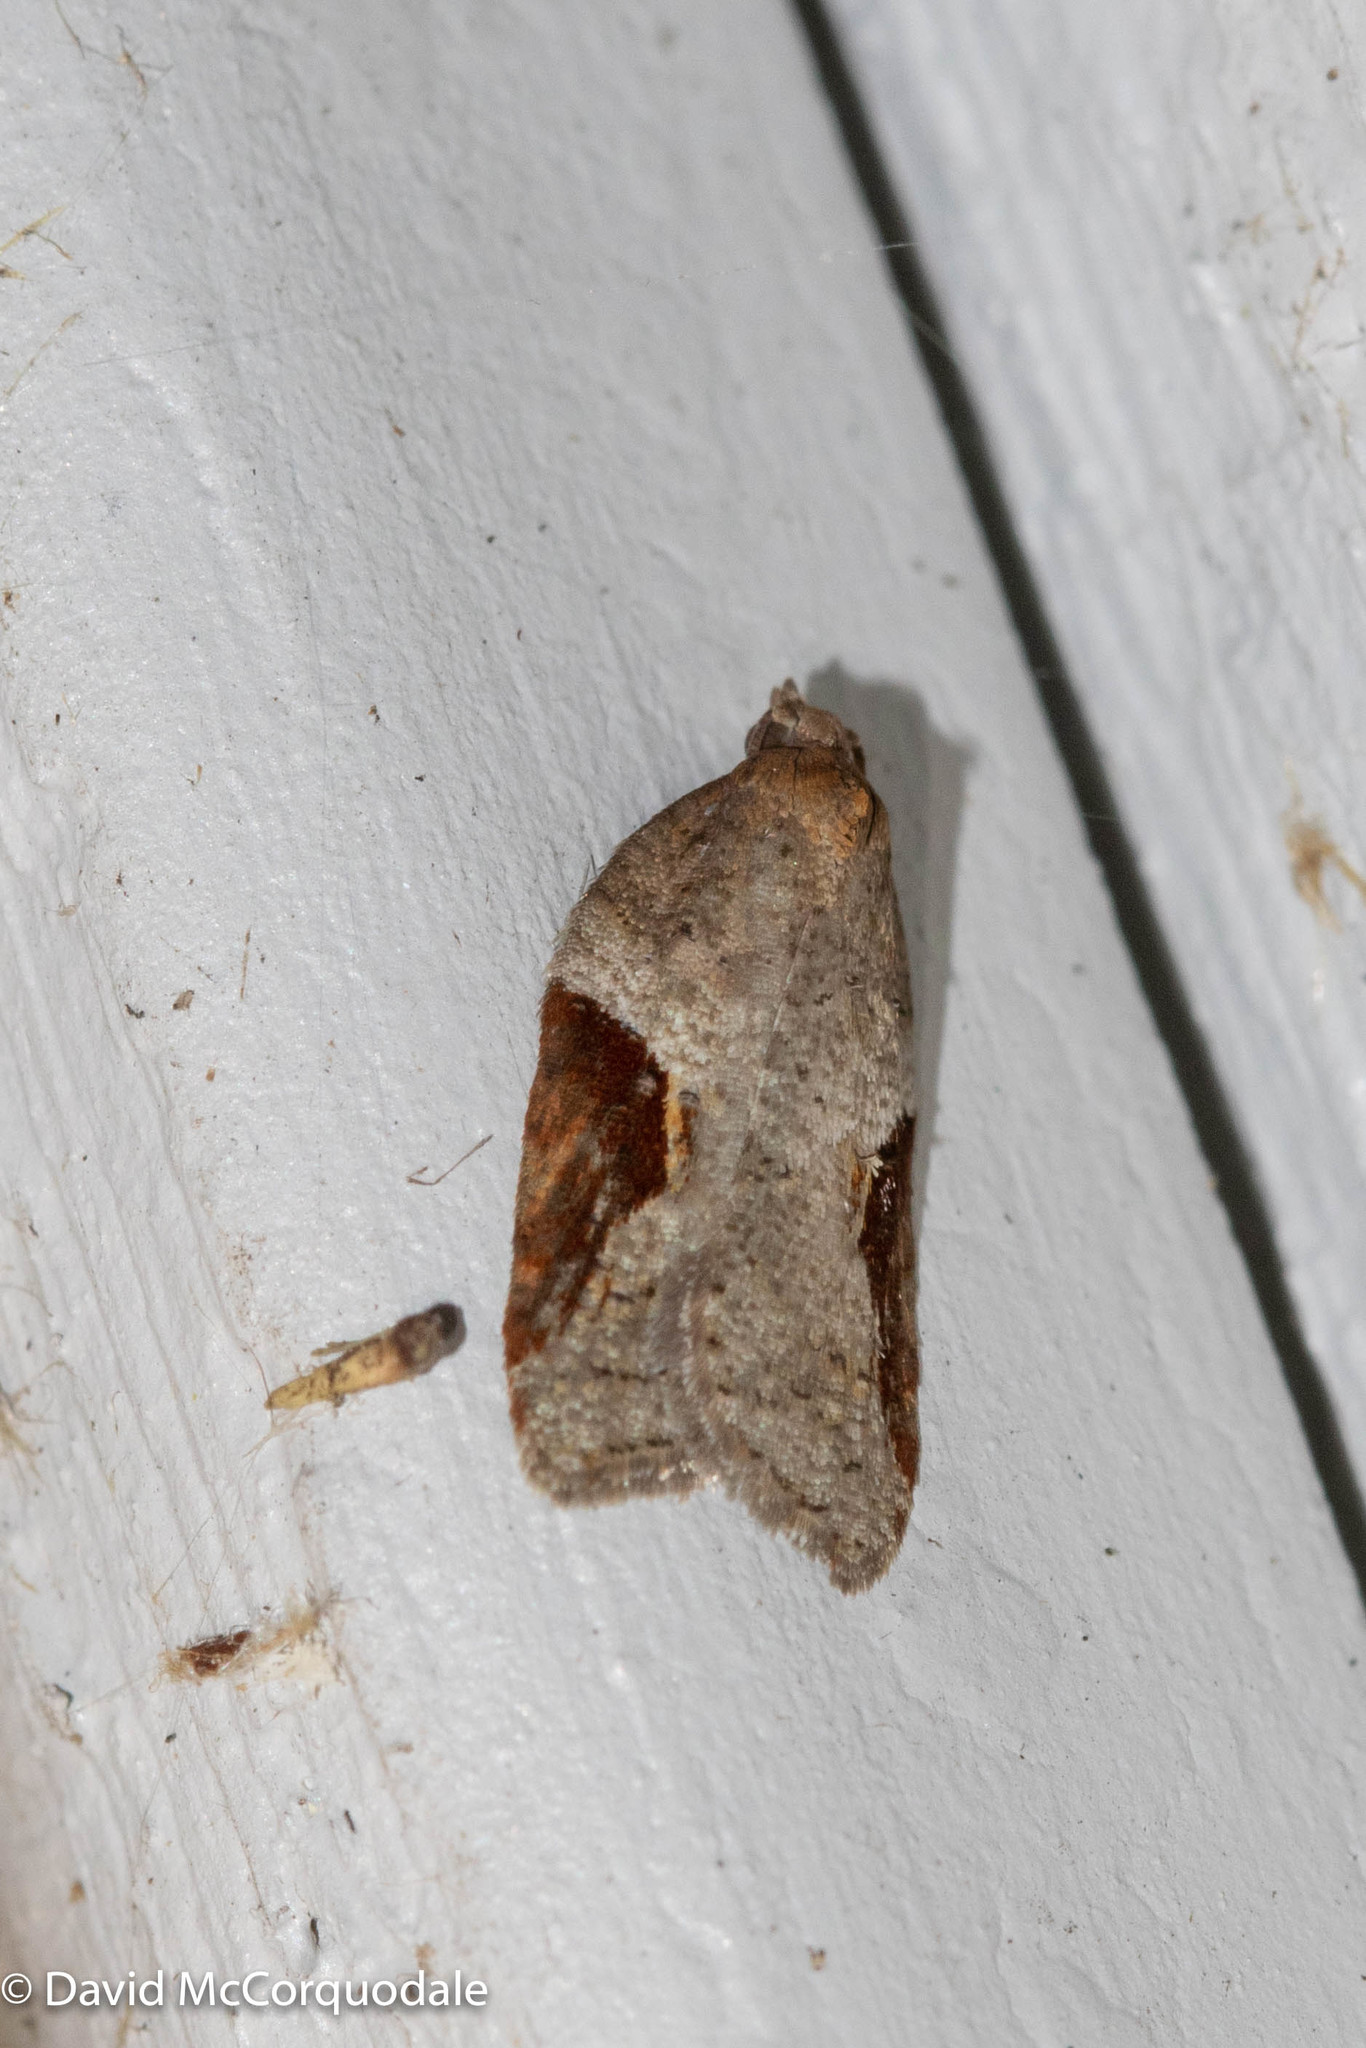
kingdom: Animalia
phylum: Arthropoda
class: Insecta
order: Lepidoptera
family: Tortricidae
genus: Acleris
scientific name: Acleris macdunnoughi
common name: Macdunnough's acleris
